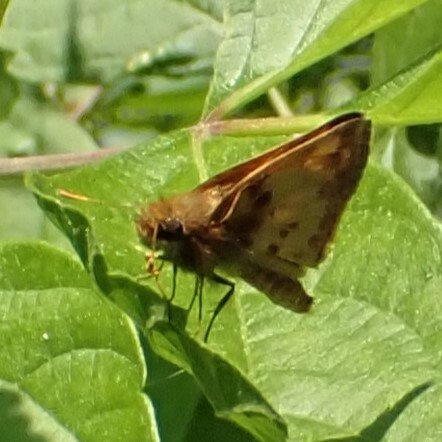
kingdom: Animalia
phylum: Arthropoda
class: Insecta
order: Lepidoptera
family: Hesperiidae
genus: Lon
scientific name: Lon zabulon
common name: Zabulon skipper
